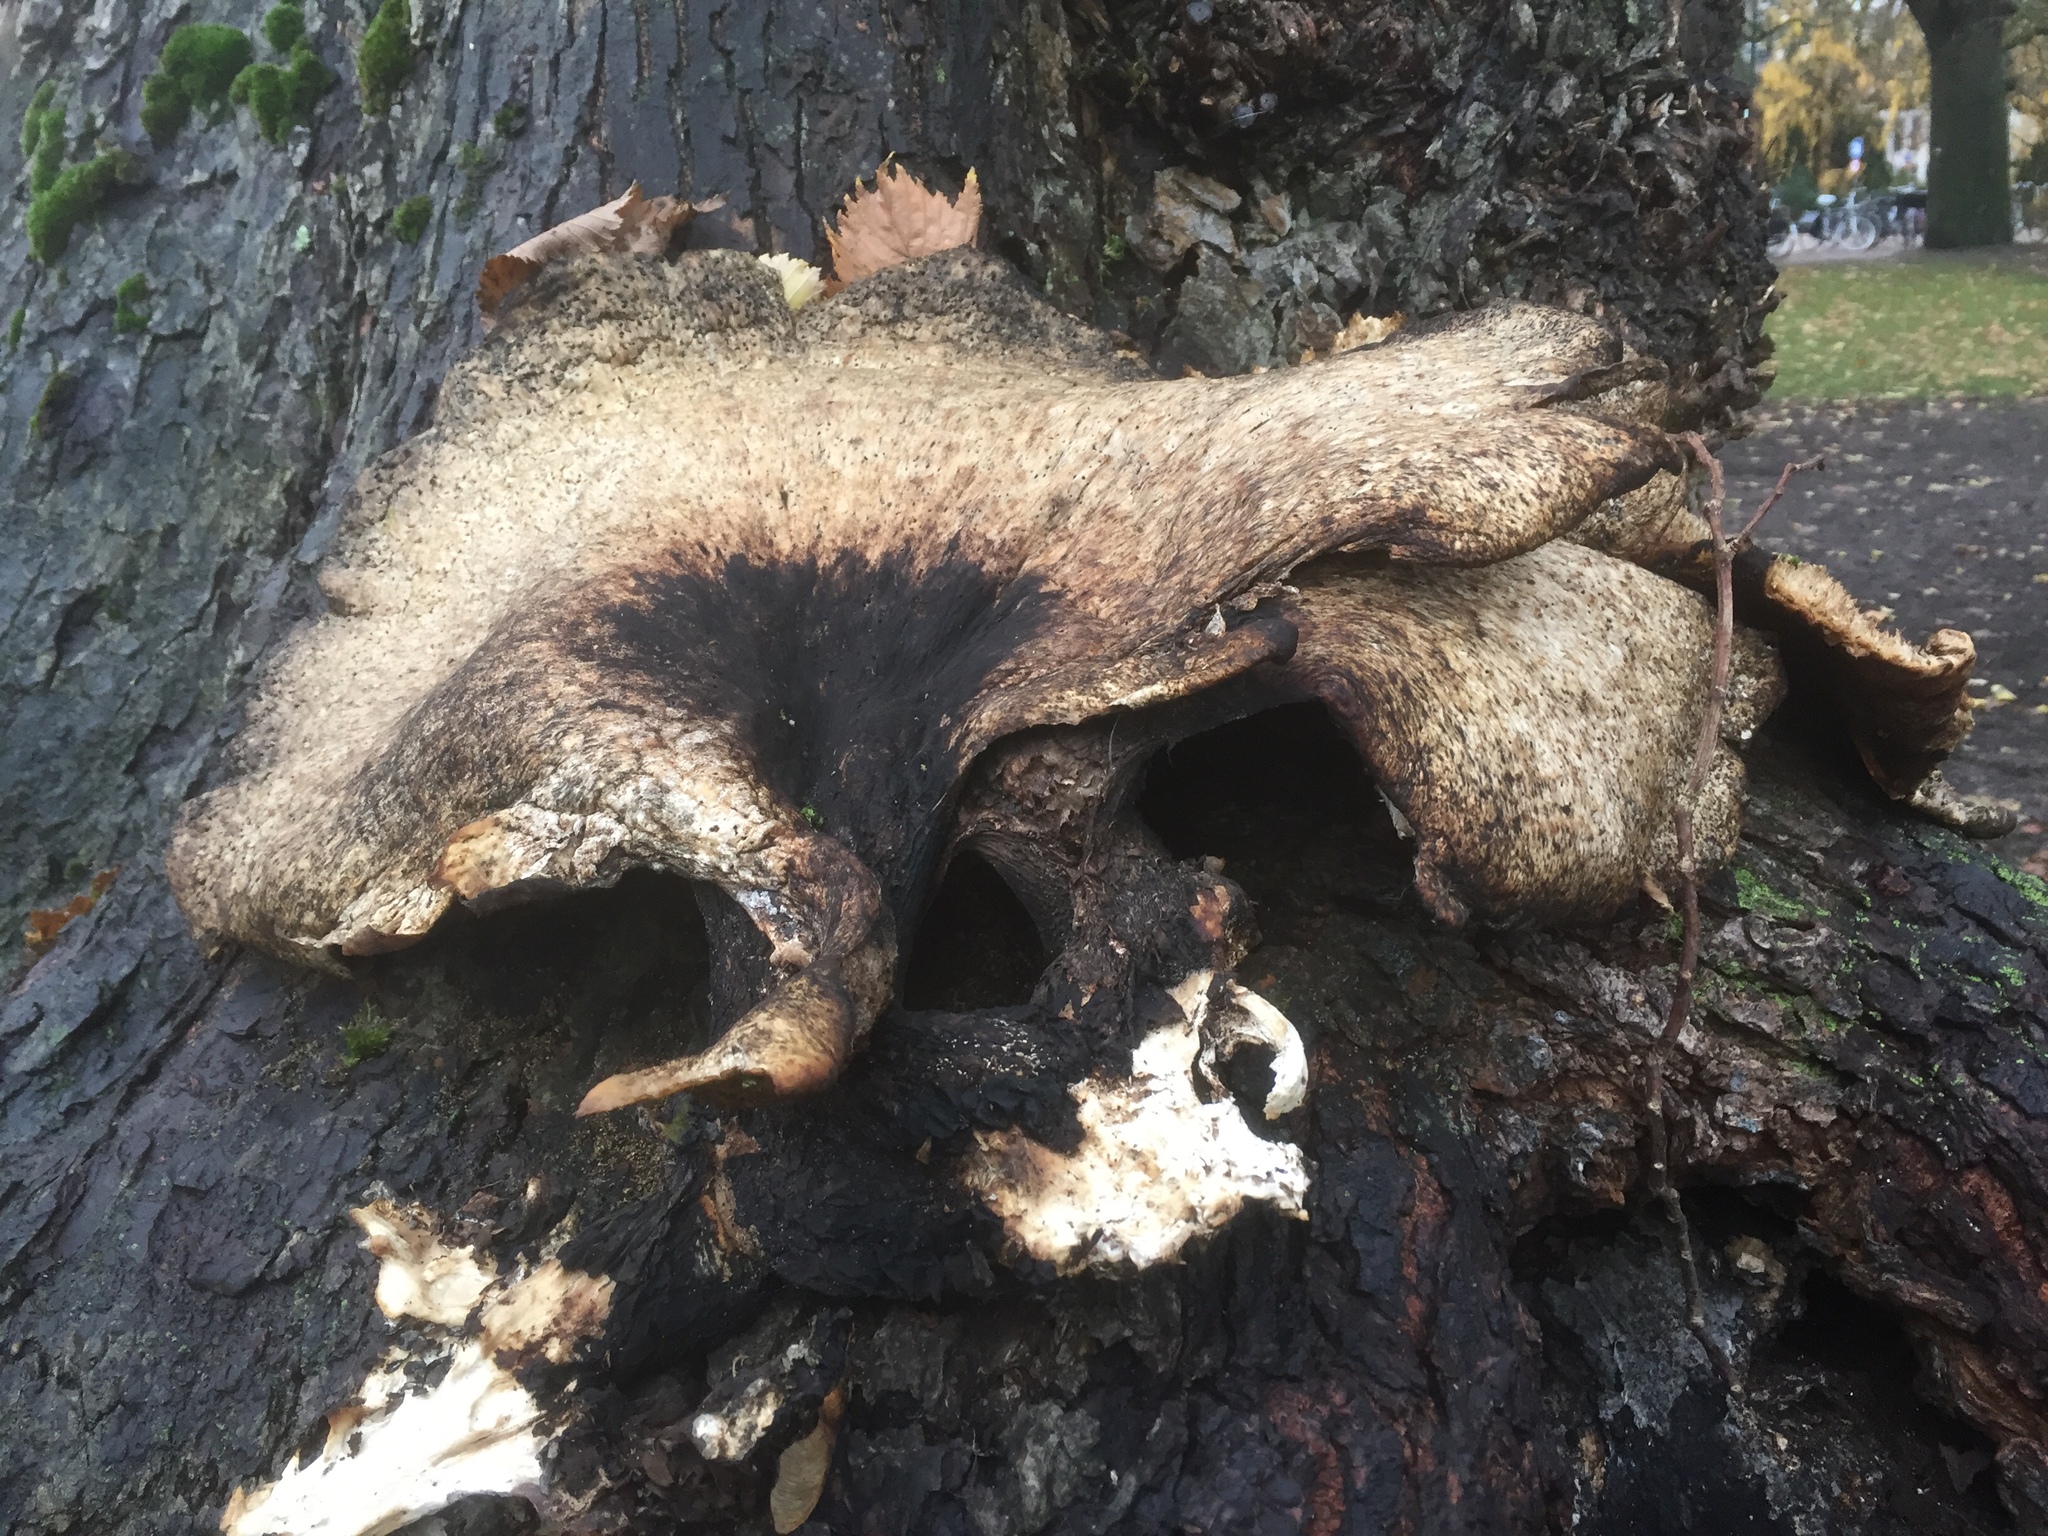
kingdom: Fungi
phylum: Basidiomycota
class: Agaricomycetes
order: Polyporales
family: Polyporaceae
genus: Cerioporus
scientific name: Cerioporus squamosus
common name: Dryad's saddle
